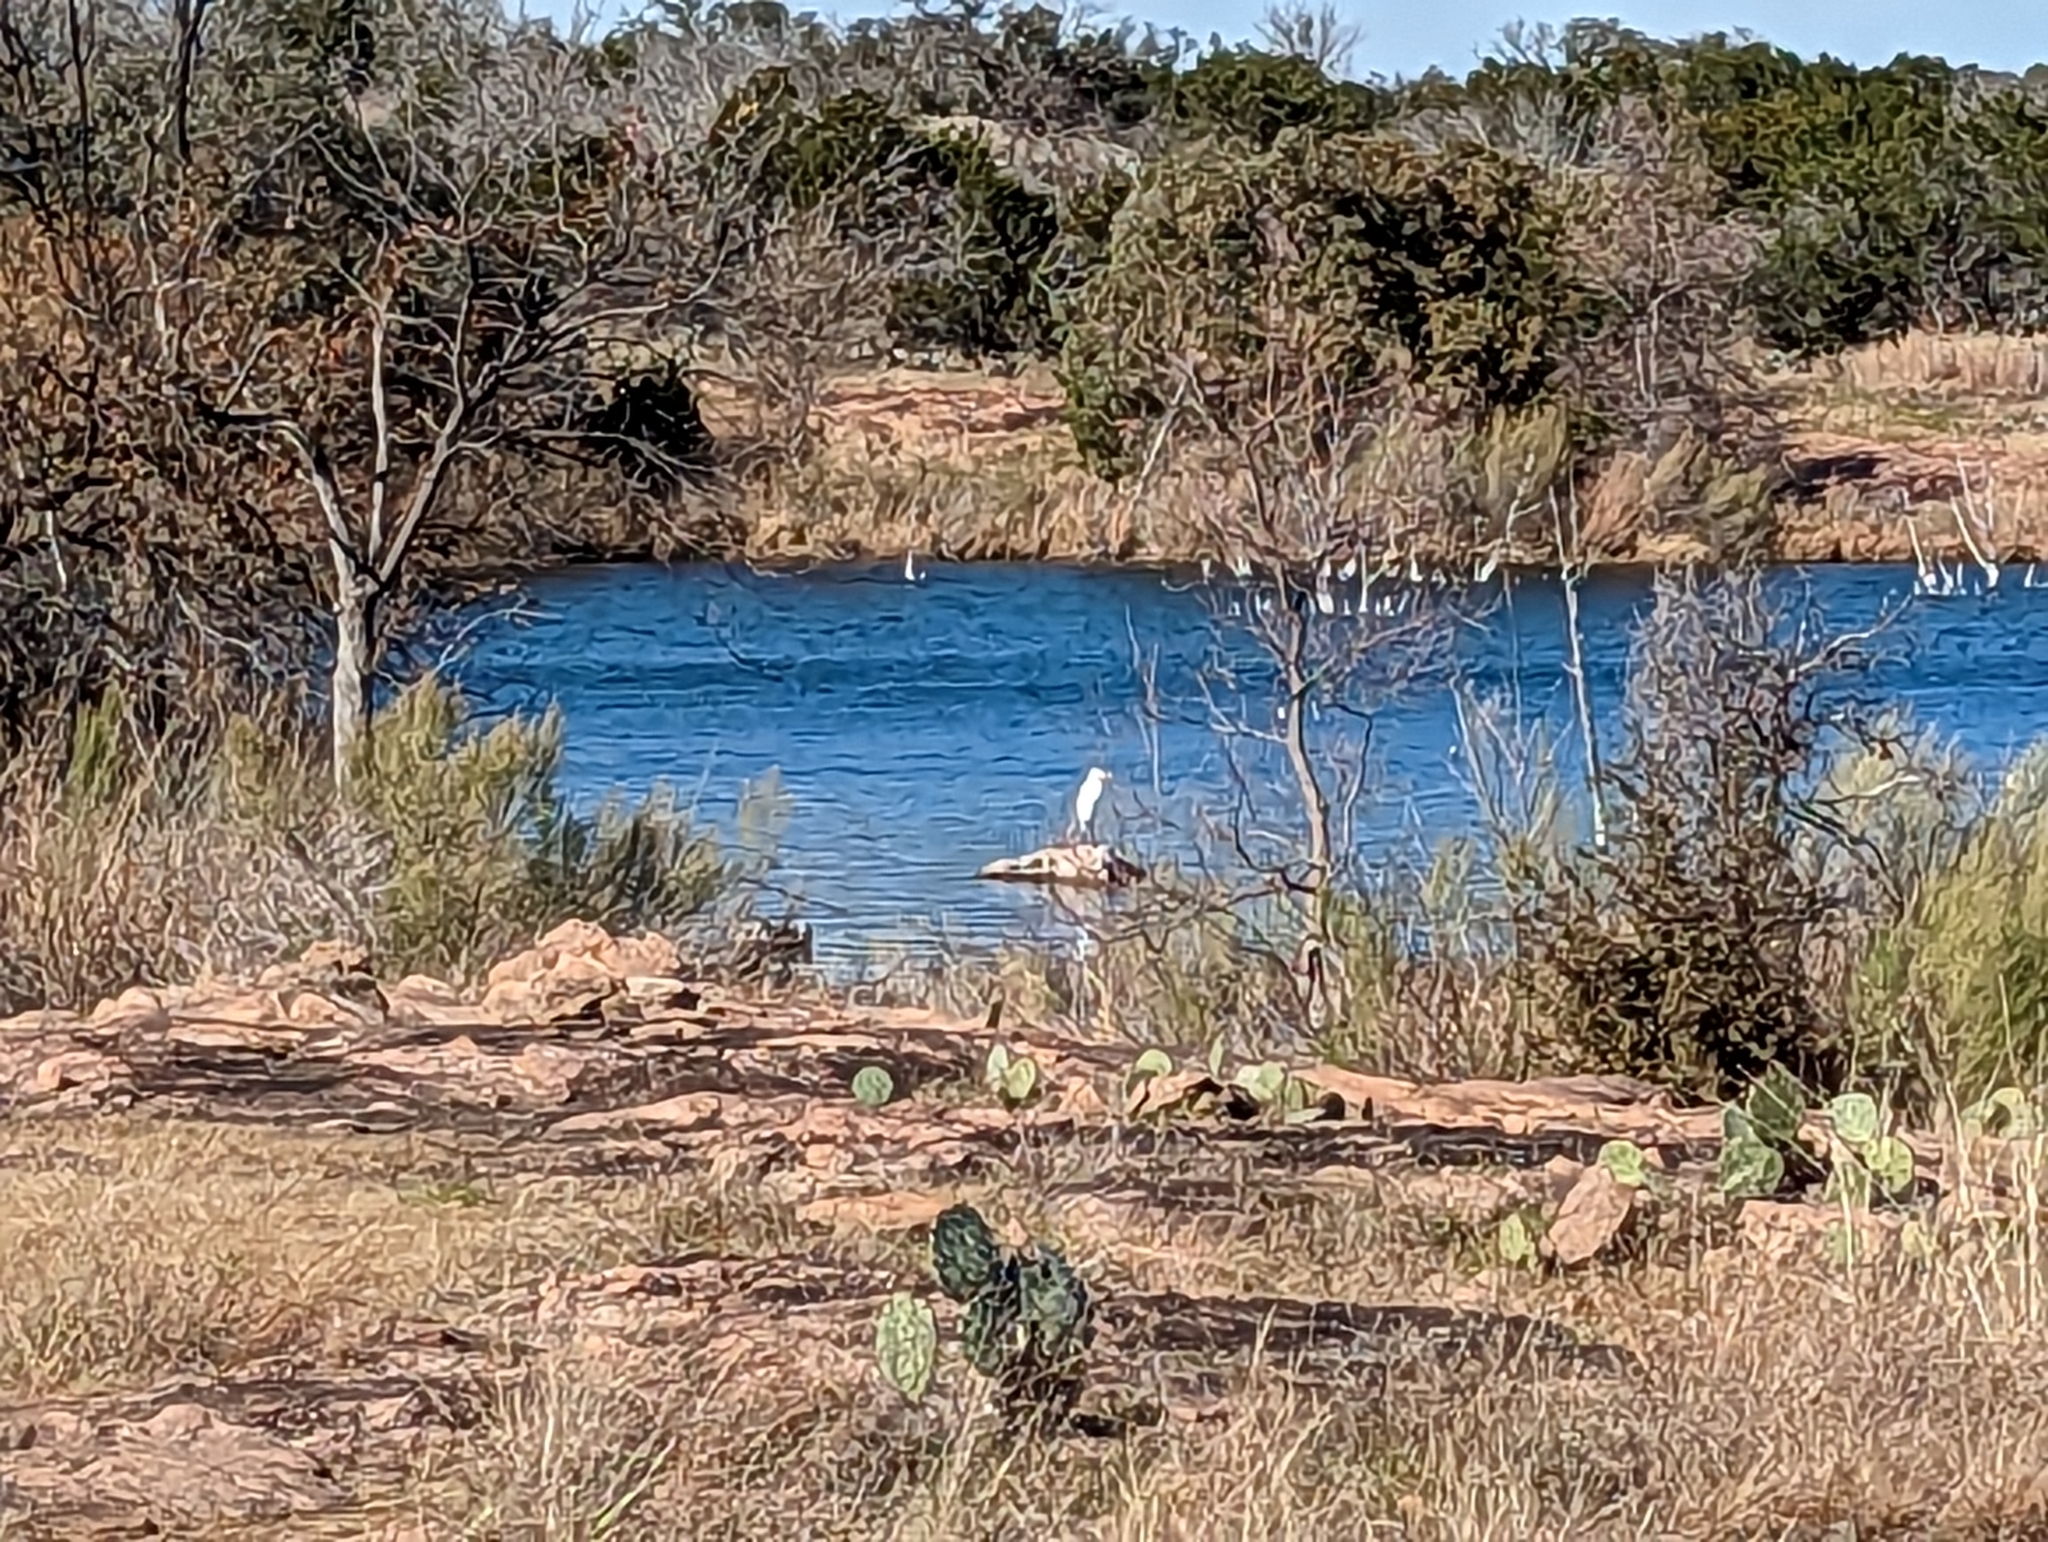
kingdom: Animalia
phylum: Chordata
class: Aves
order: Pelecaniformes
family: Ardeidae
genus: Ardea
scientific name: Ardea alba
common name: Great egret
